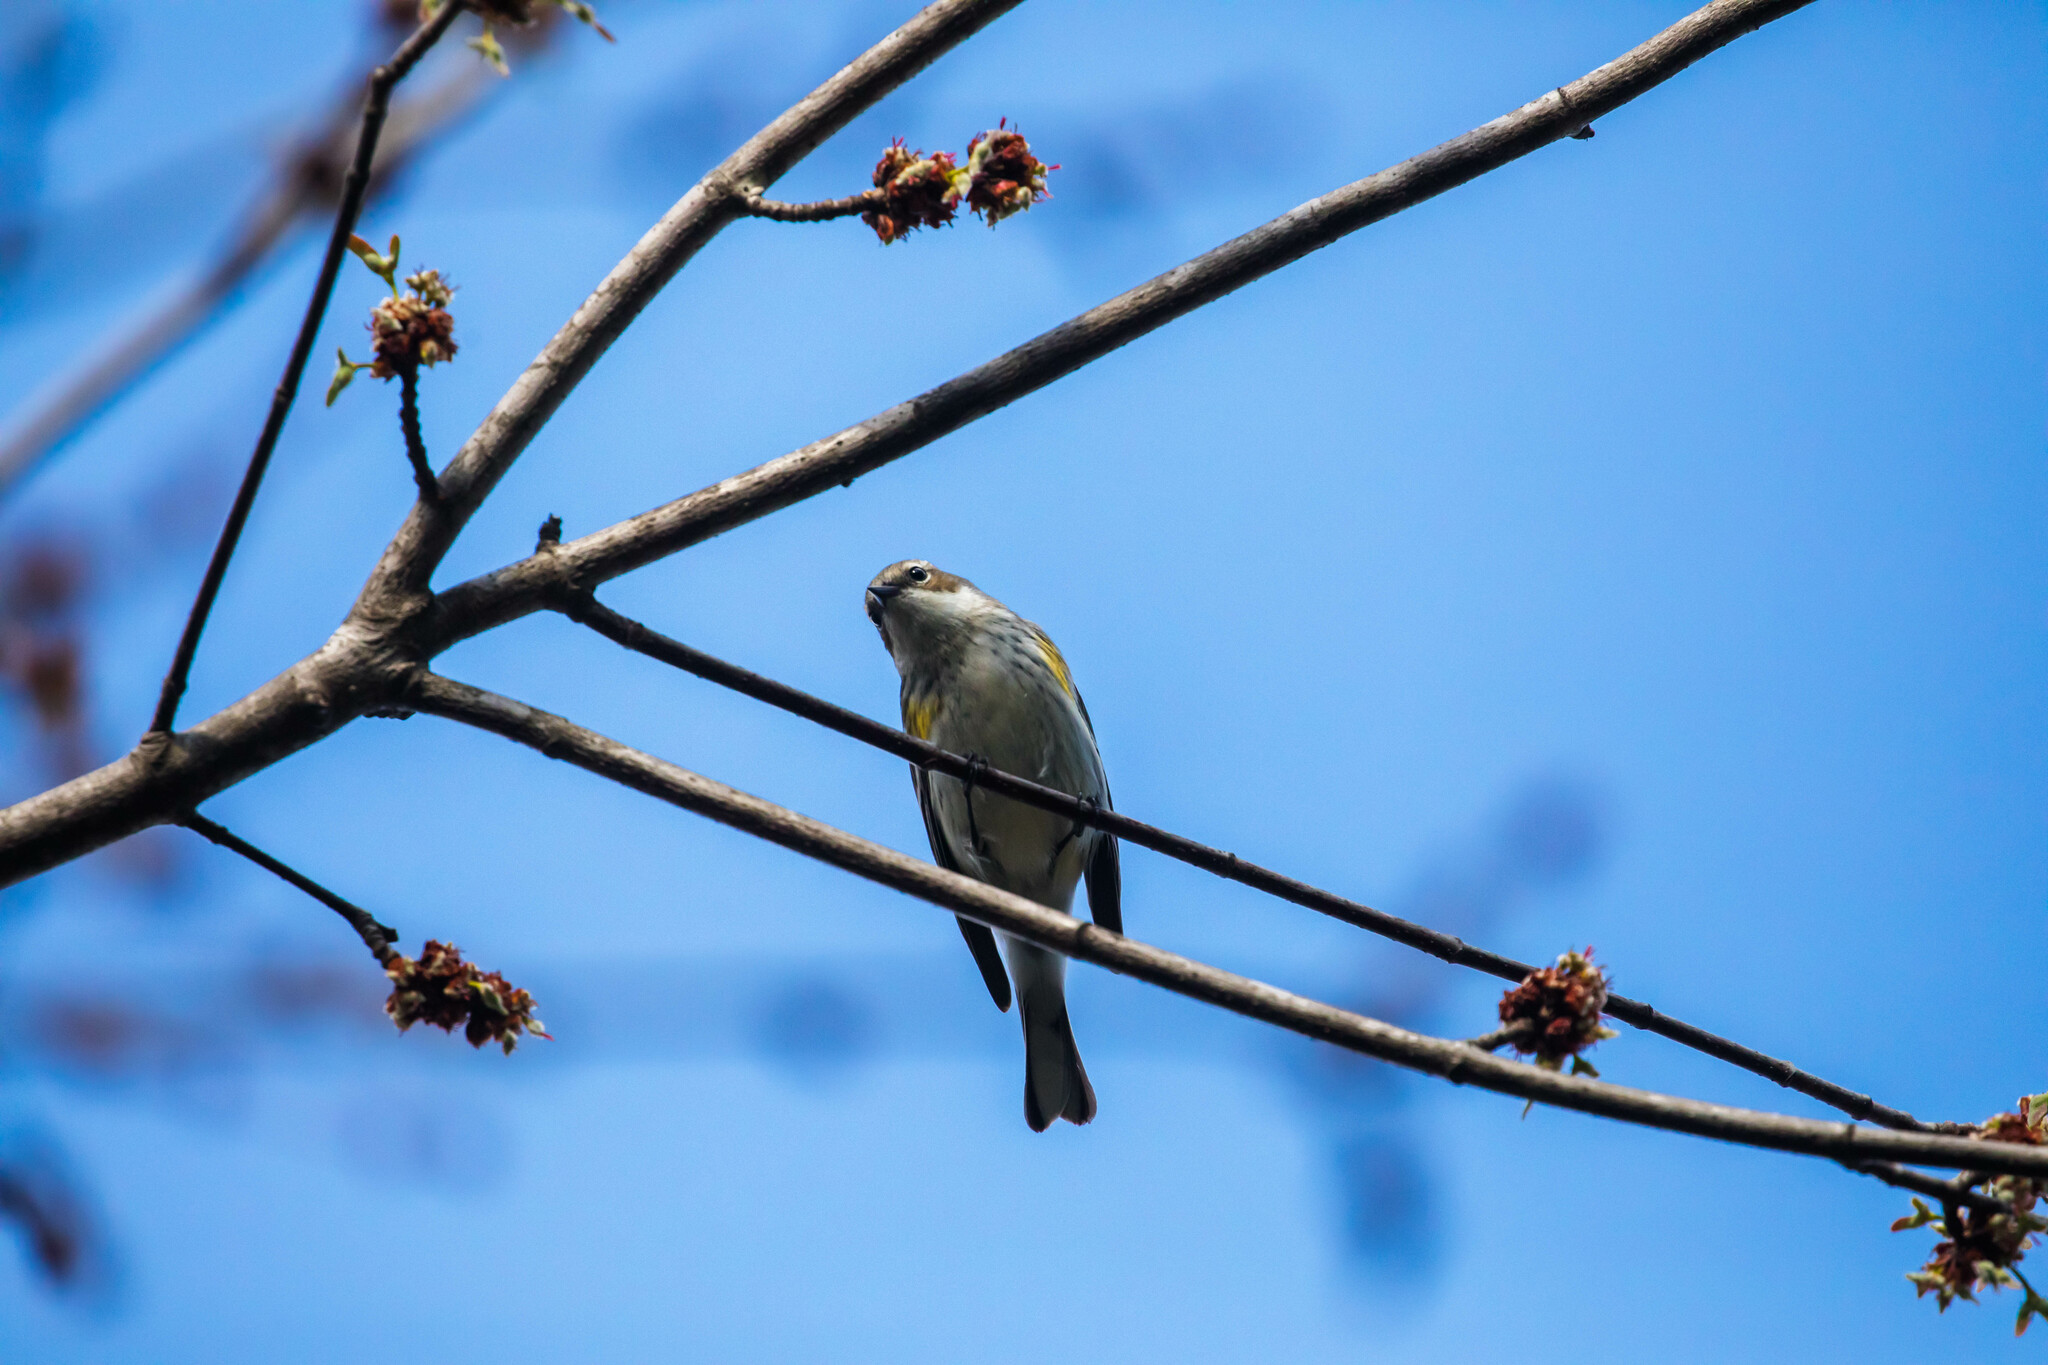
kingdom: Animalia
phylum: Chordata
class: Aves
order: Passeriformes
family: Parulidae
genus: Setophaga
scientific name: Setophaga coronata
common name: Myrtle warbler
